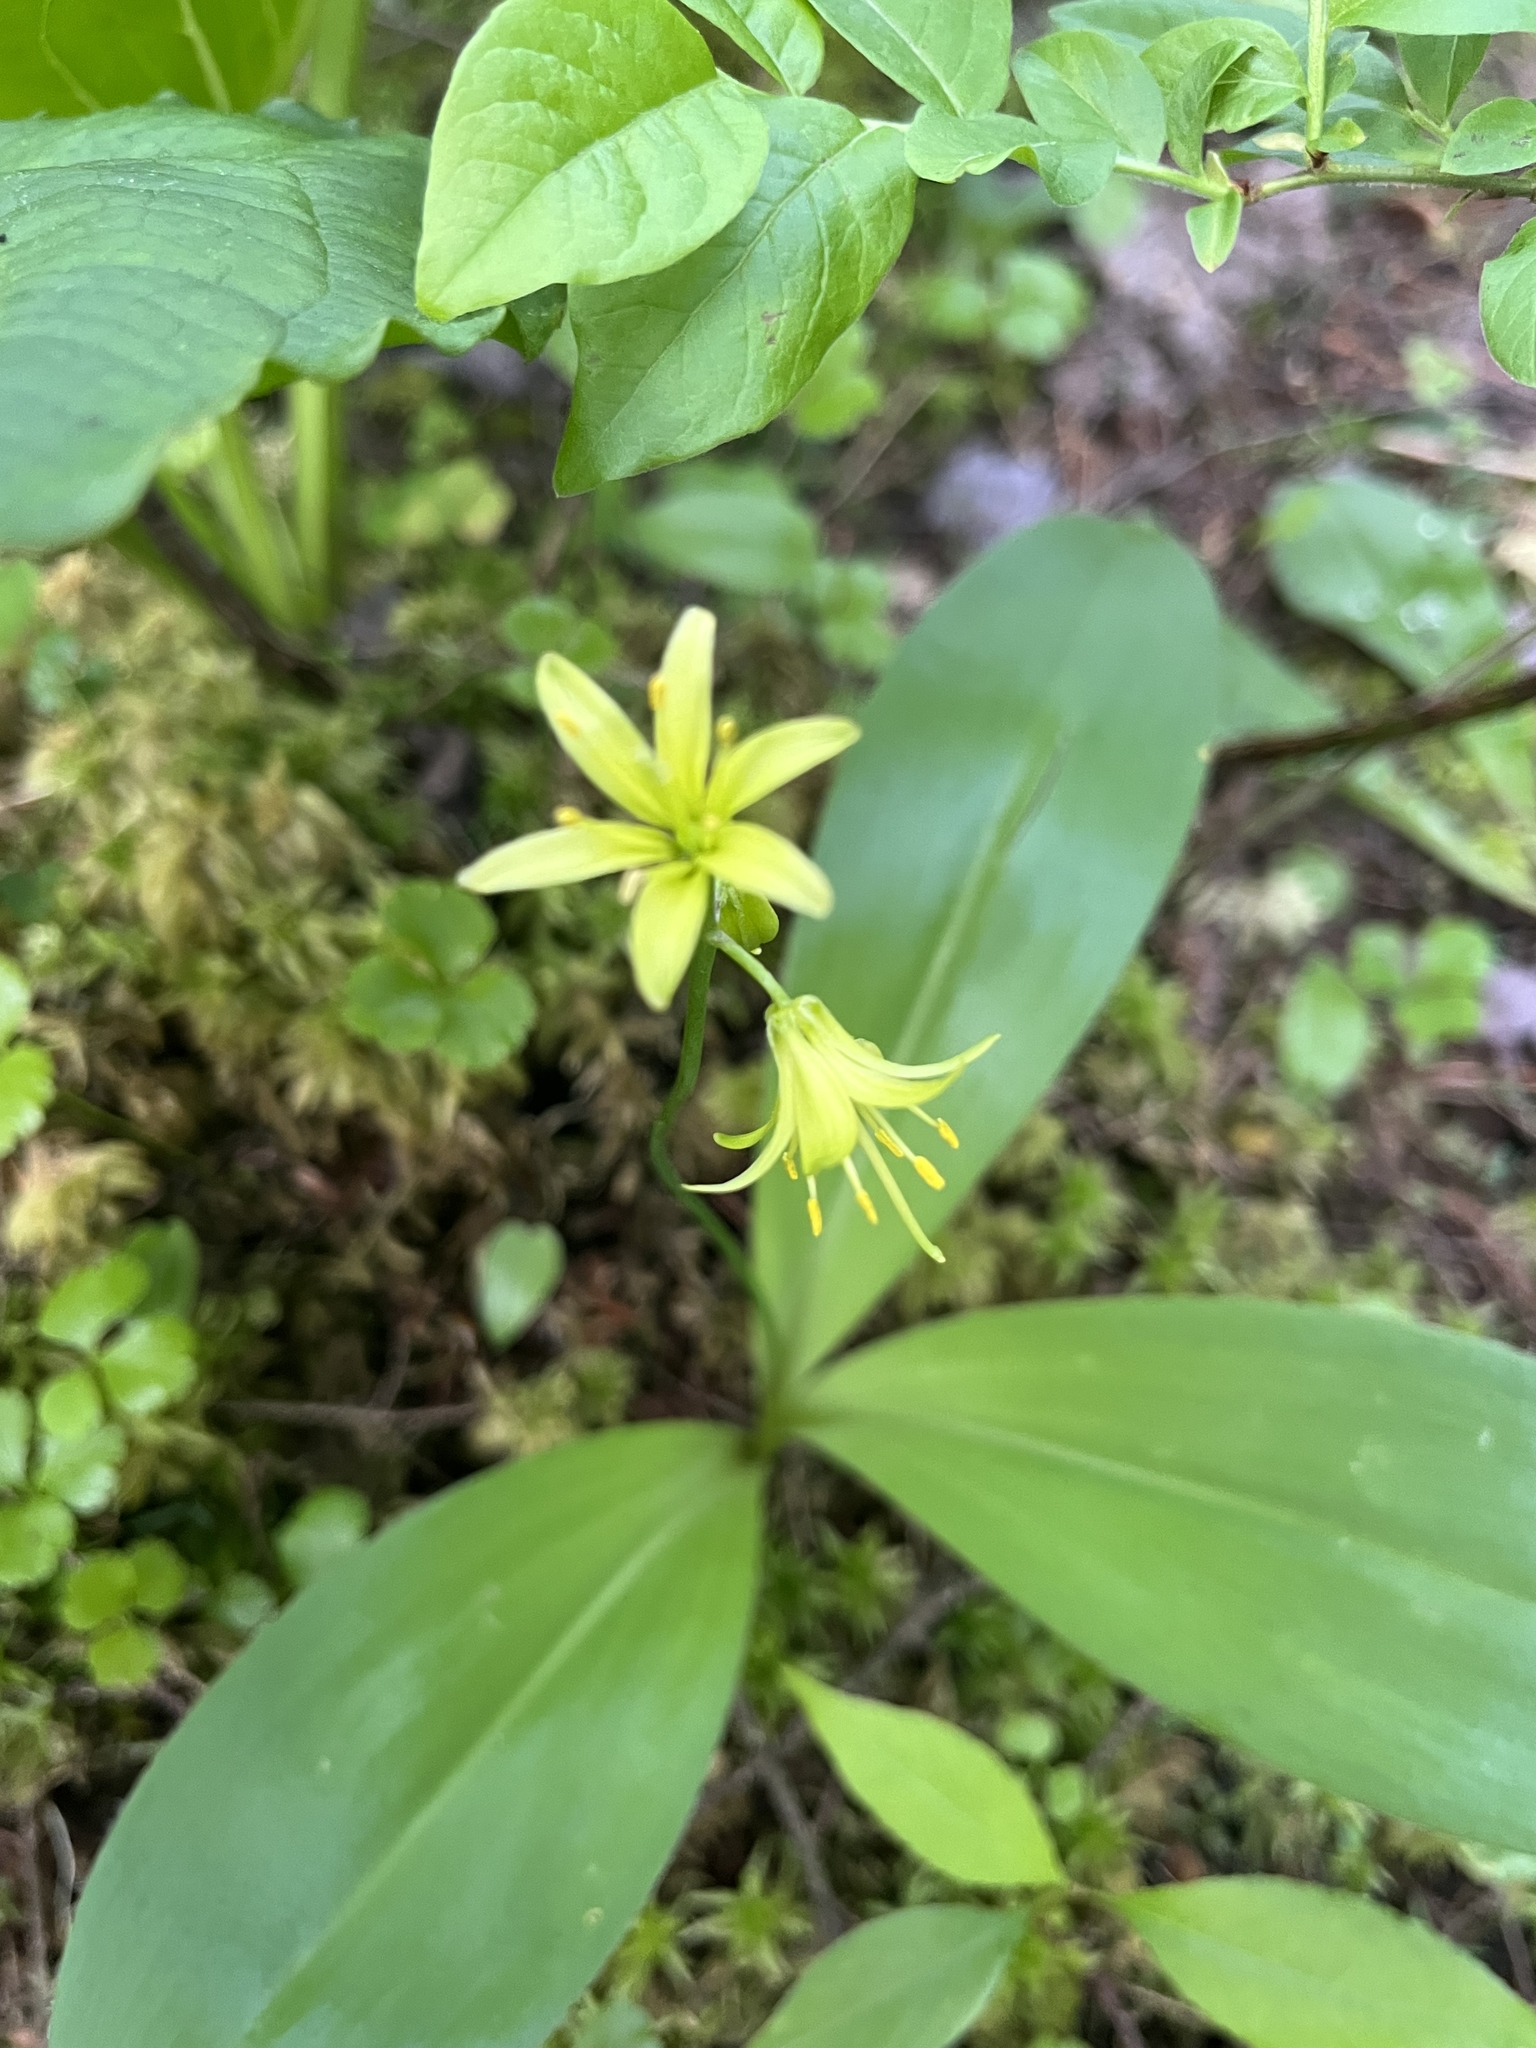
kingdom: Plantae
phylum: Tracheophyta
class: Liliopsida
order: Liliales
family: Liliaceae
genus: Clintonia
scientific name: Clintonia borealis
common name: Yellow clintonia
